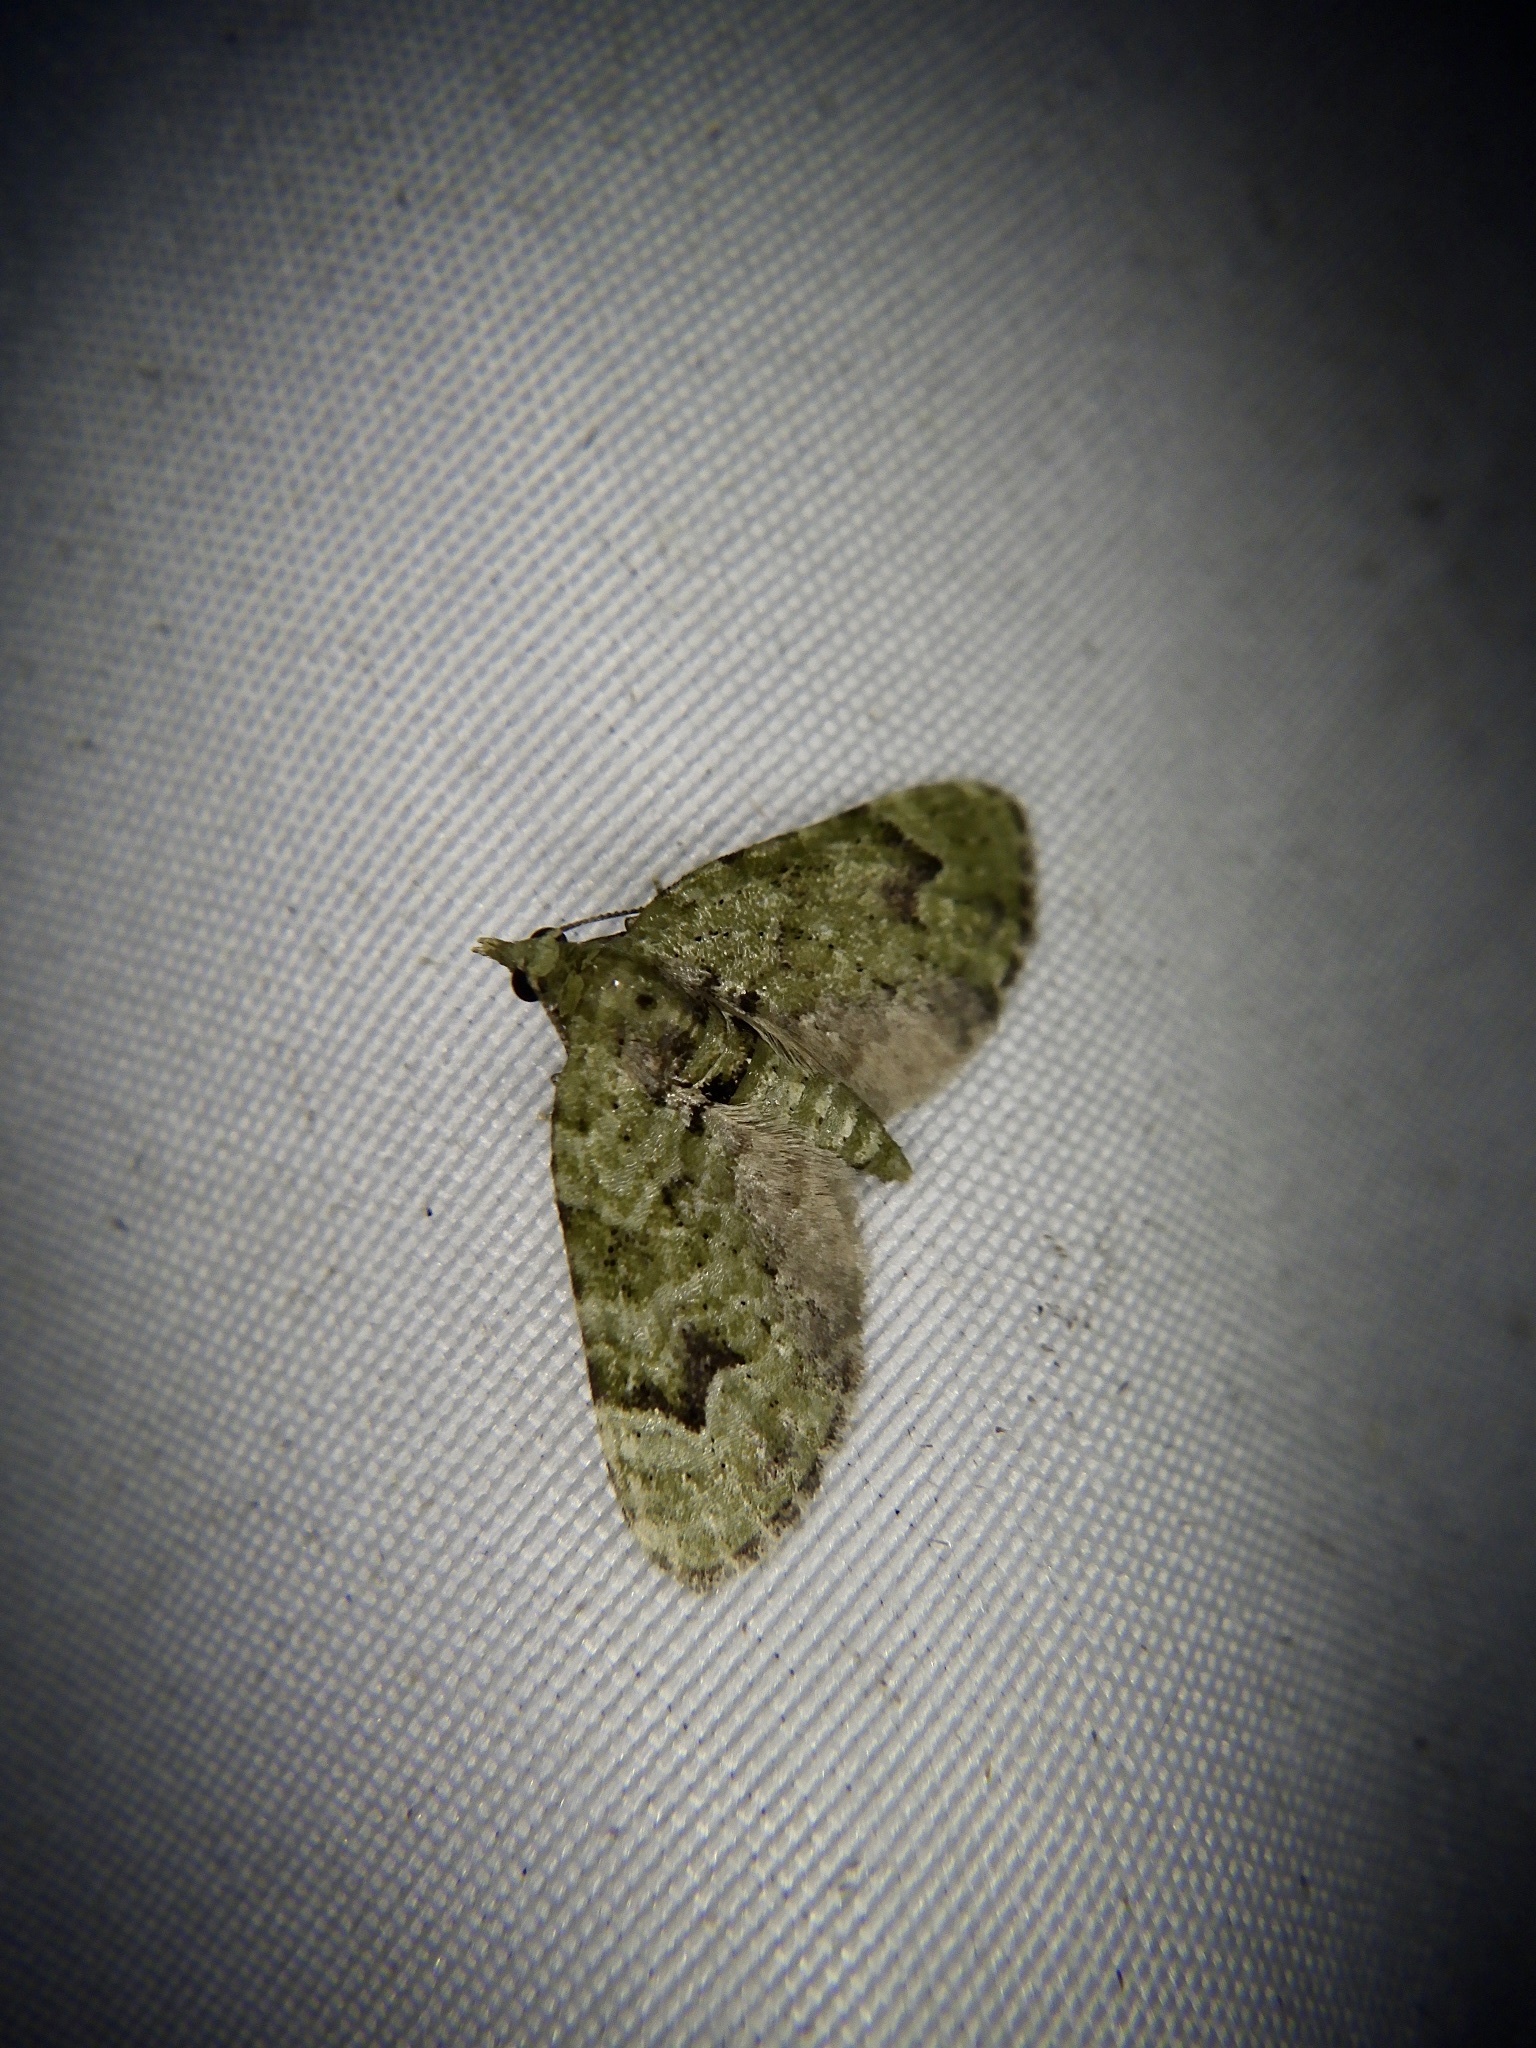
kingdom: Animalia
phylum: Arthropoda
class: Insecta
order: Lepidoptera
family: Geometridae
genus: Chloroclystis
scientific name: Chloroclystis v-ata
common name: V-pug
